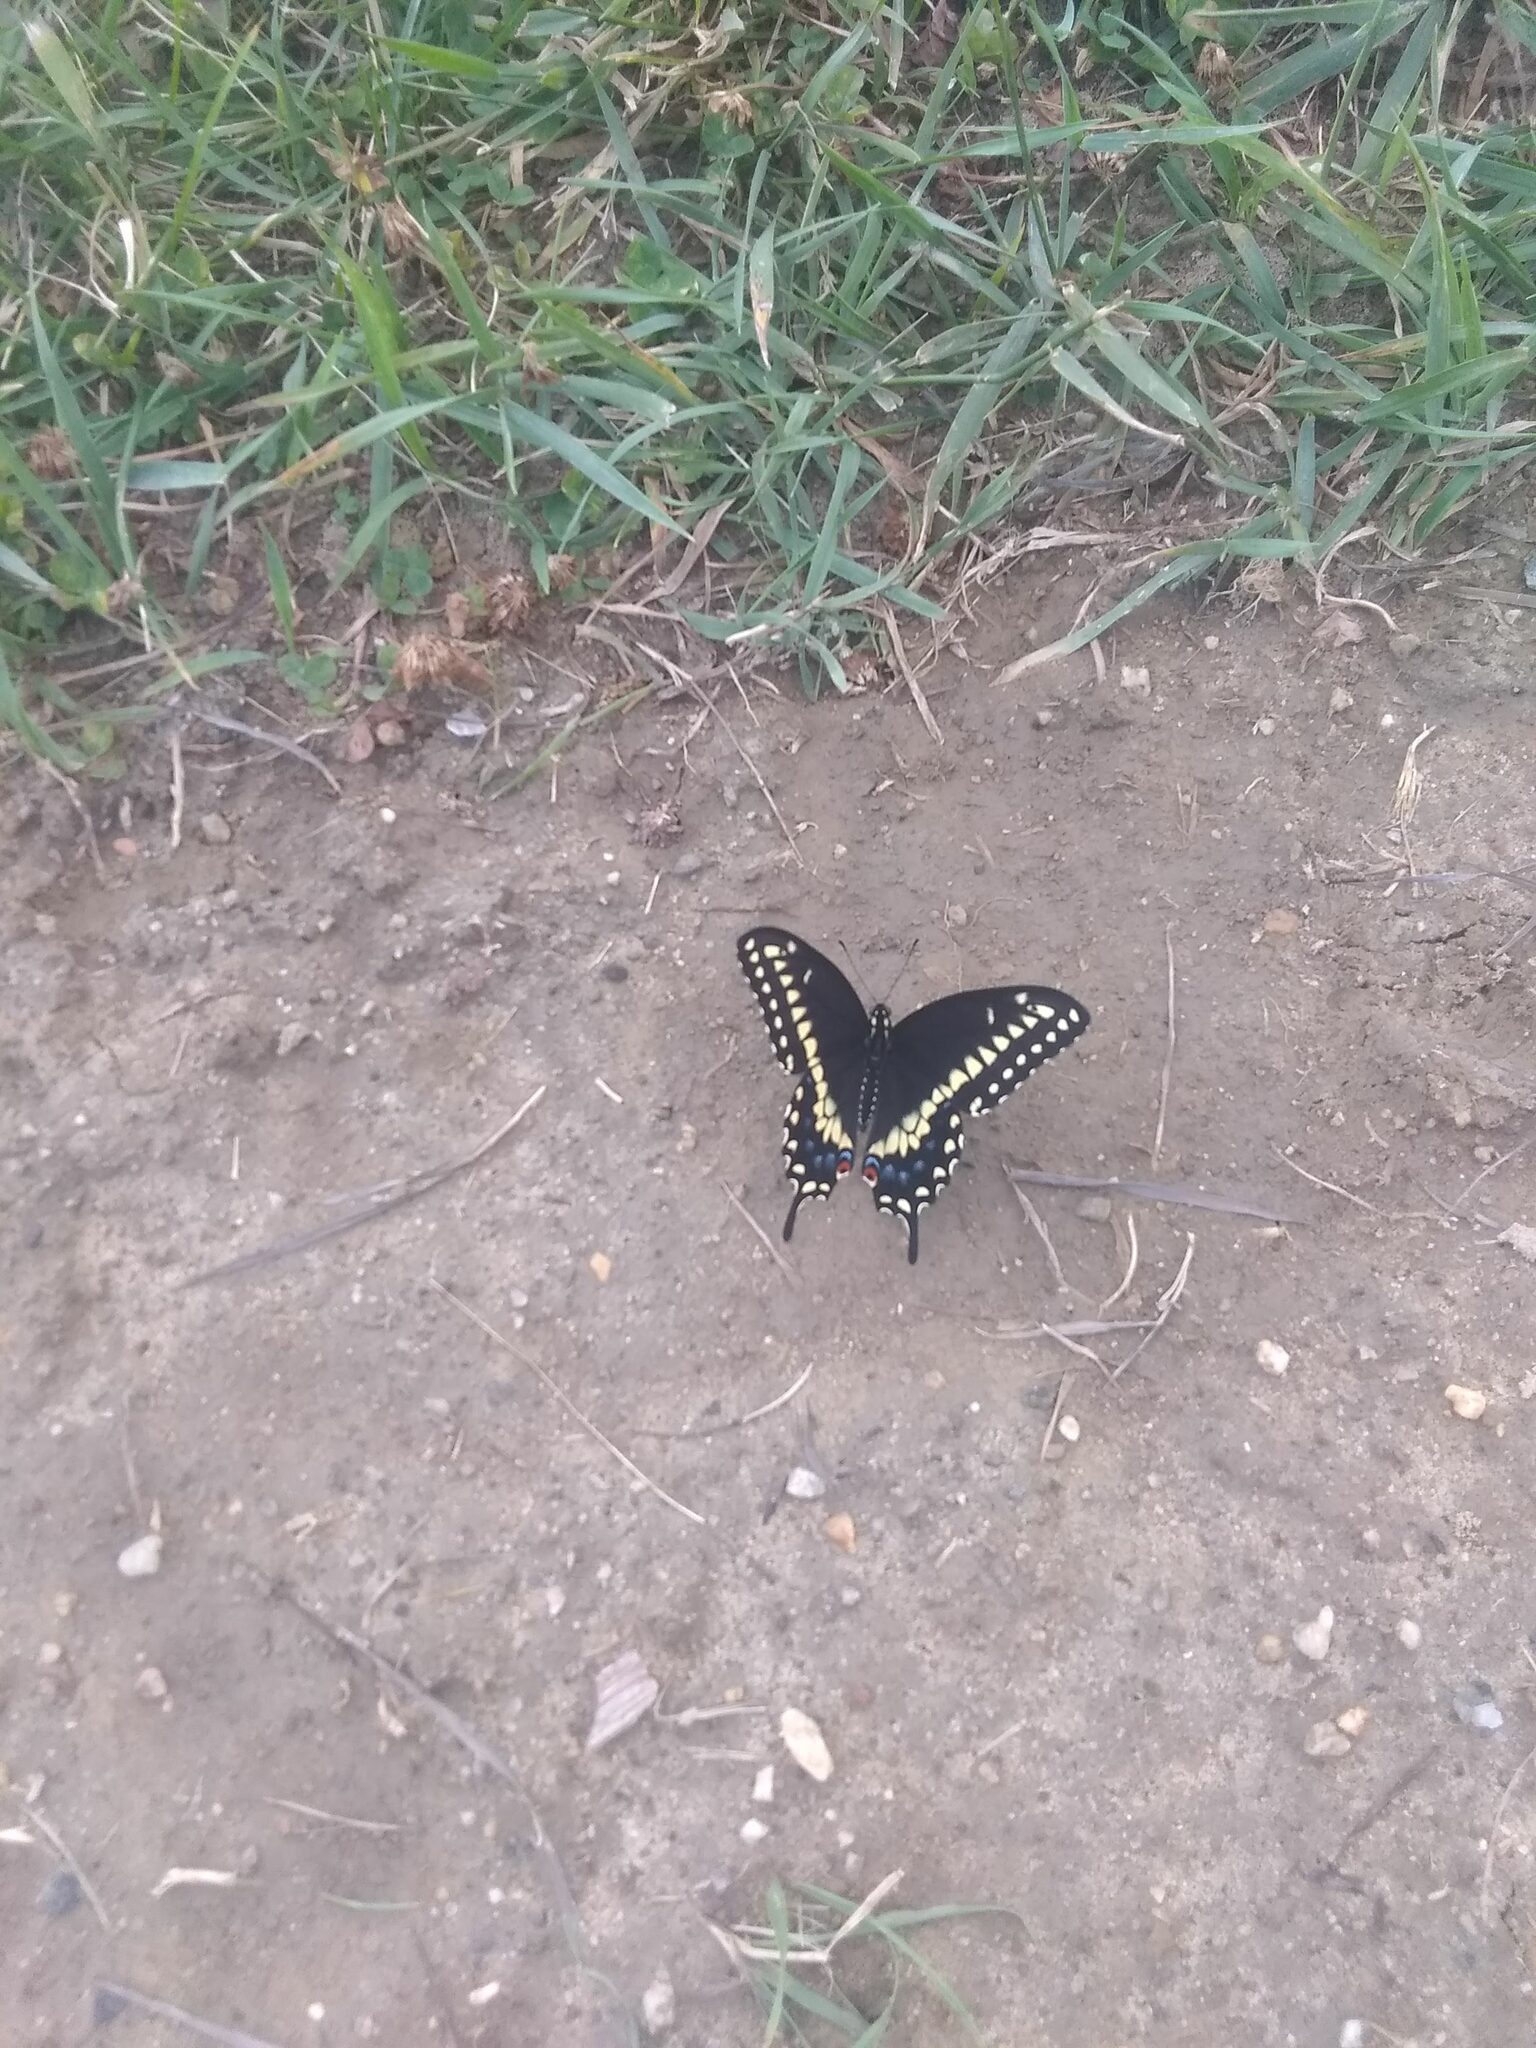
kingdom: Animalia
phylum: Arthropoda
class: Insecta
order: Lepidoptera
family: Papilionidae
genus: Papilio
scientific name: Papilio polyxenes
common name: Black swallowtail
